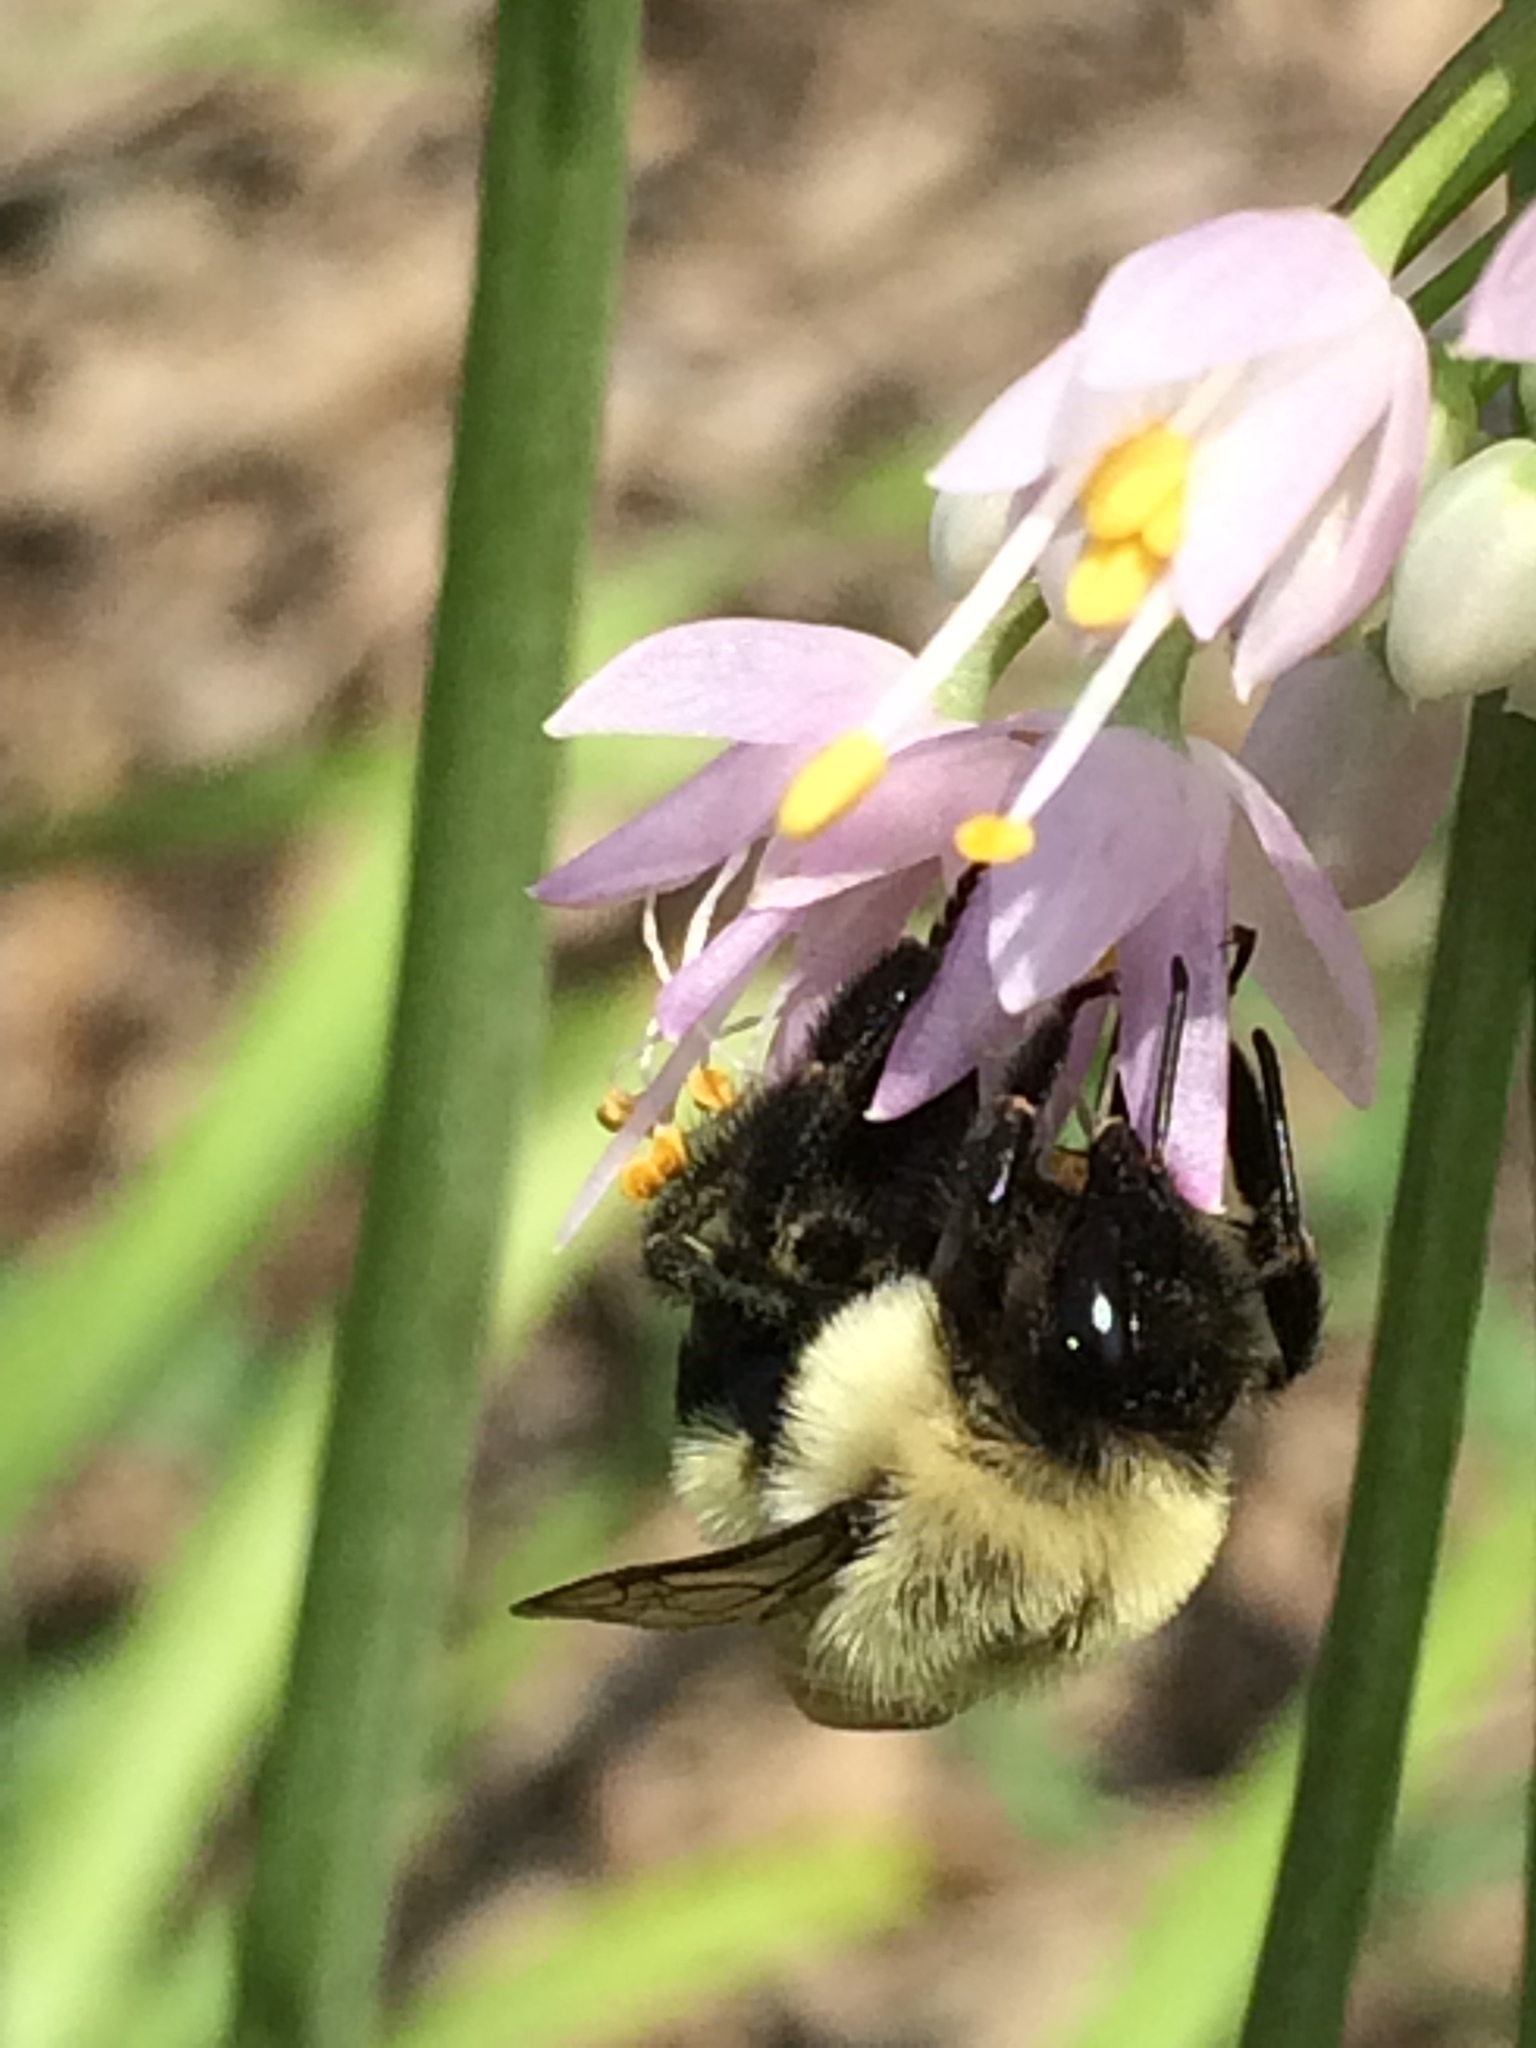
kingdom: Animalia
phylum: Arthropoda
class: Insecta
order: Hymenoptera
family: Apidae
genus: Bombus
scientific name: Bombus impatiens
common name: Common eastern bumble bee
